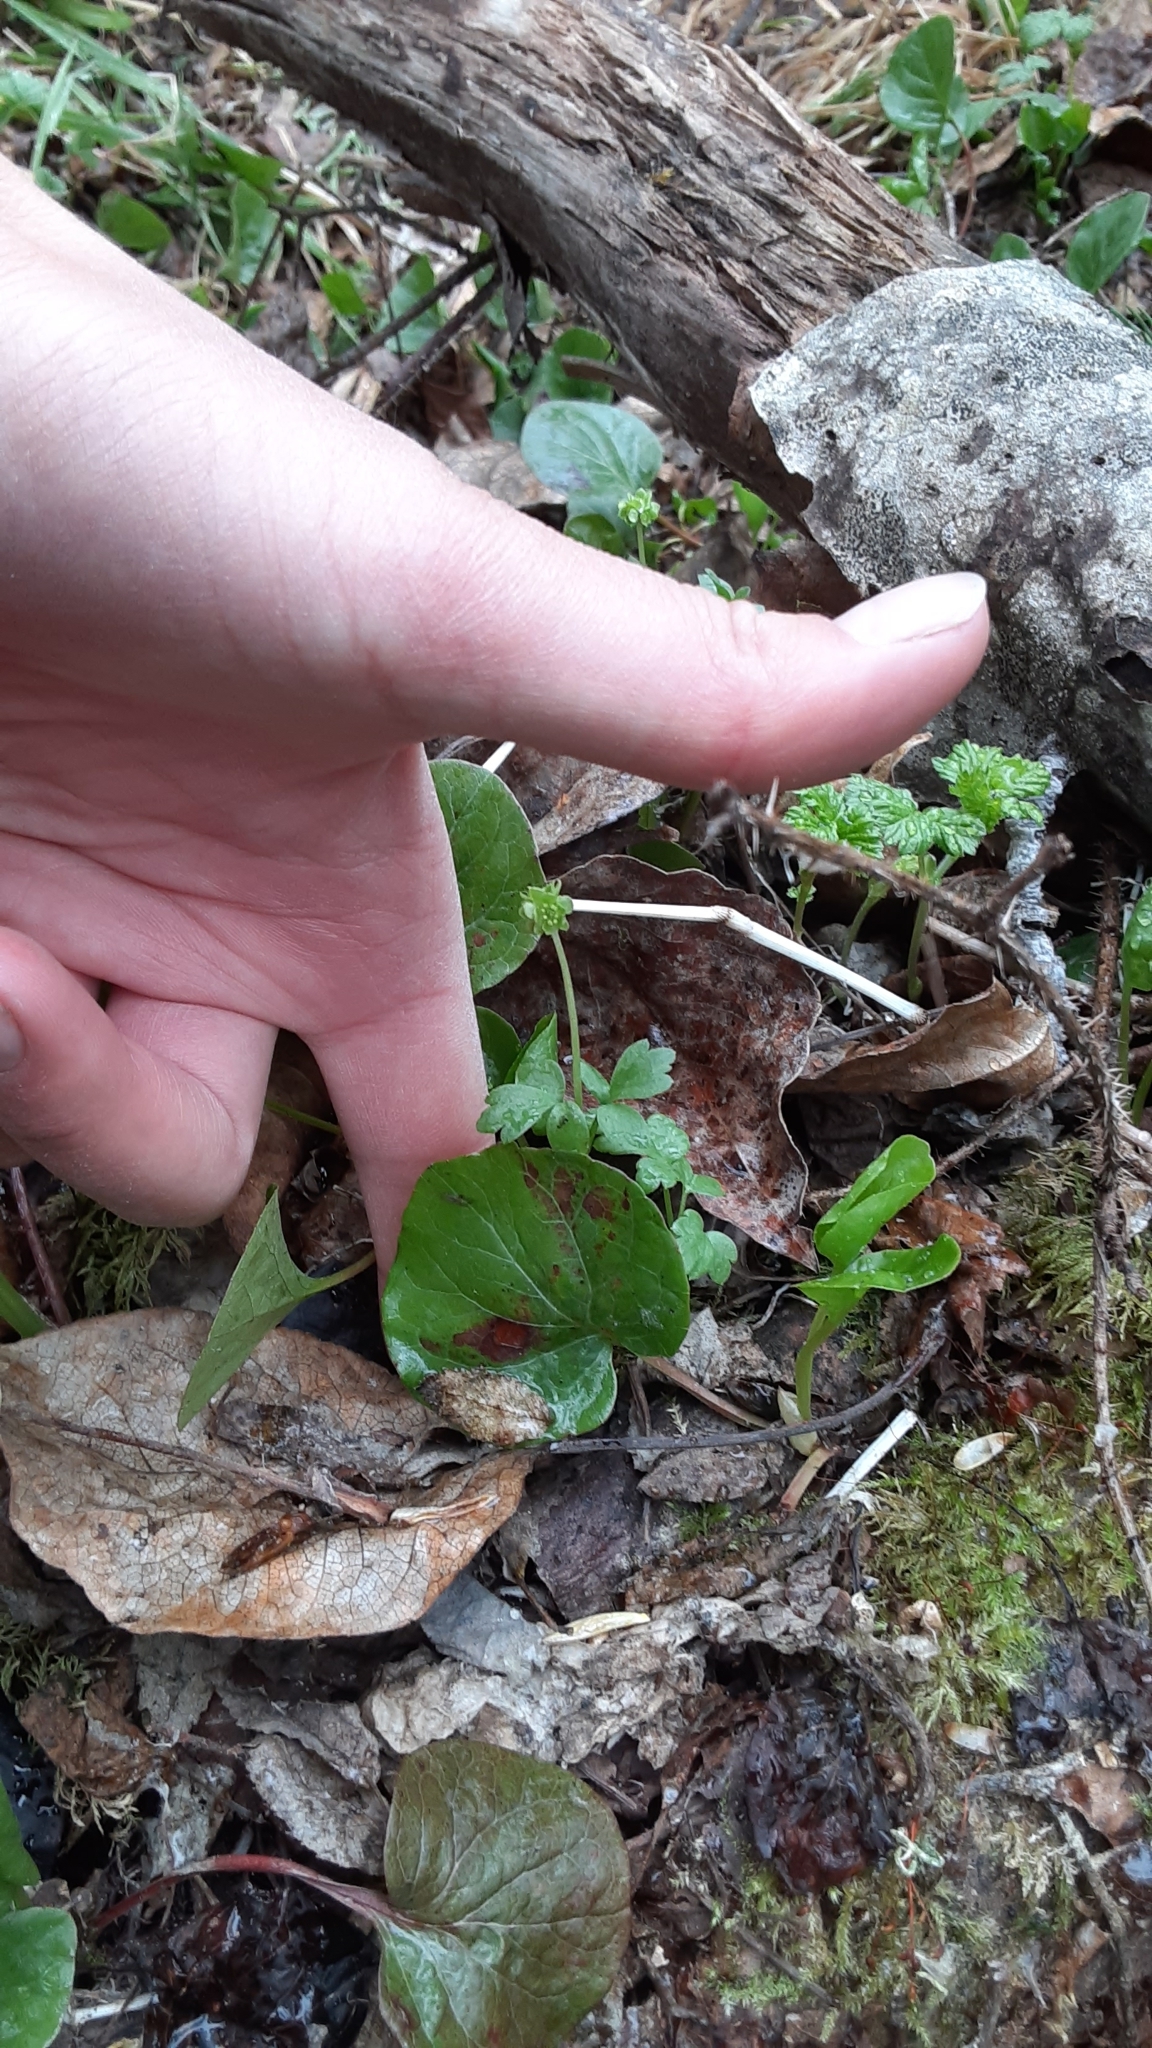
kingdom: Plantae
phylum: Tracheophyta
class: Magnoliopsida
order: Dipsacales
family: Viburnaceae
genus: Adoxa
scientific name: Adoxa moschatellina
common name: Moschatel
